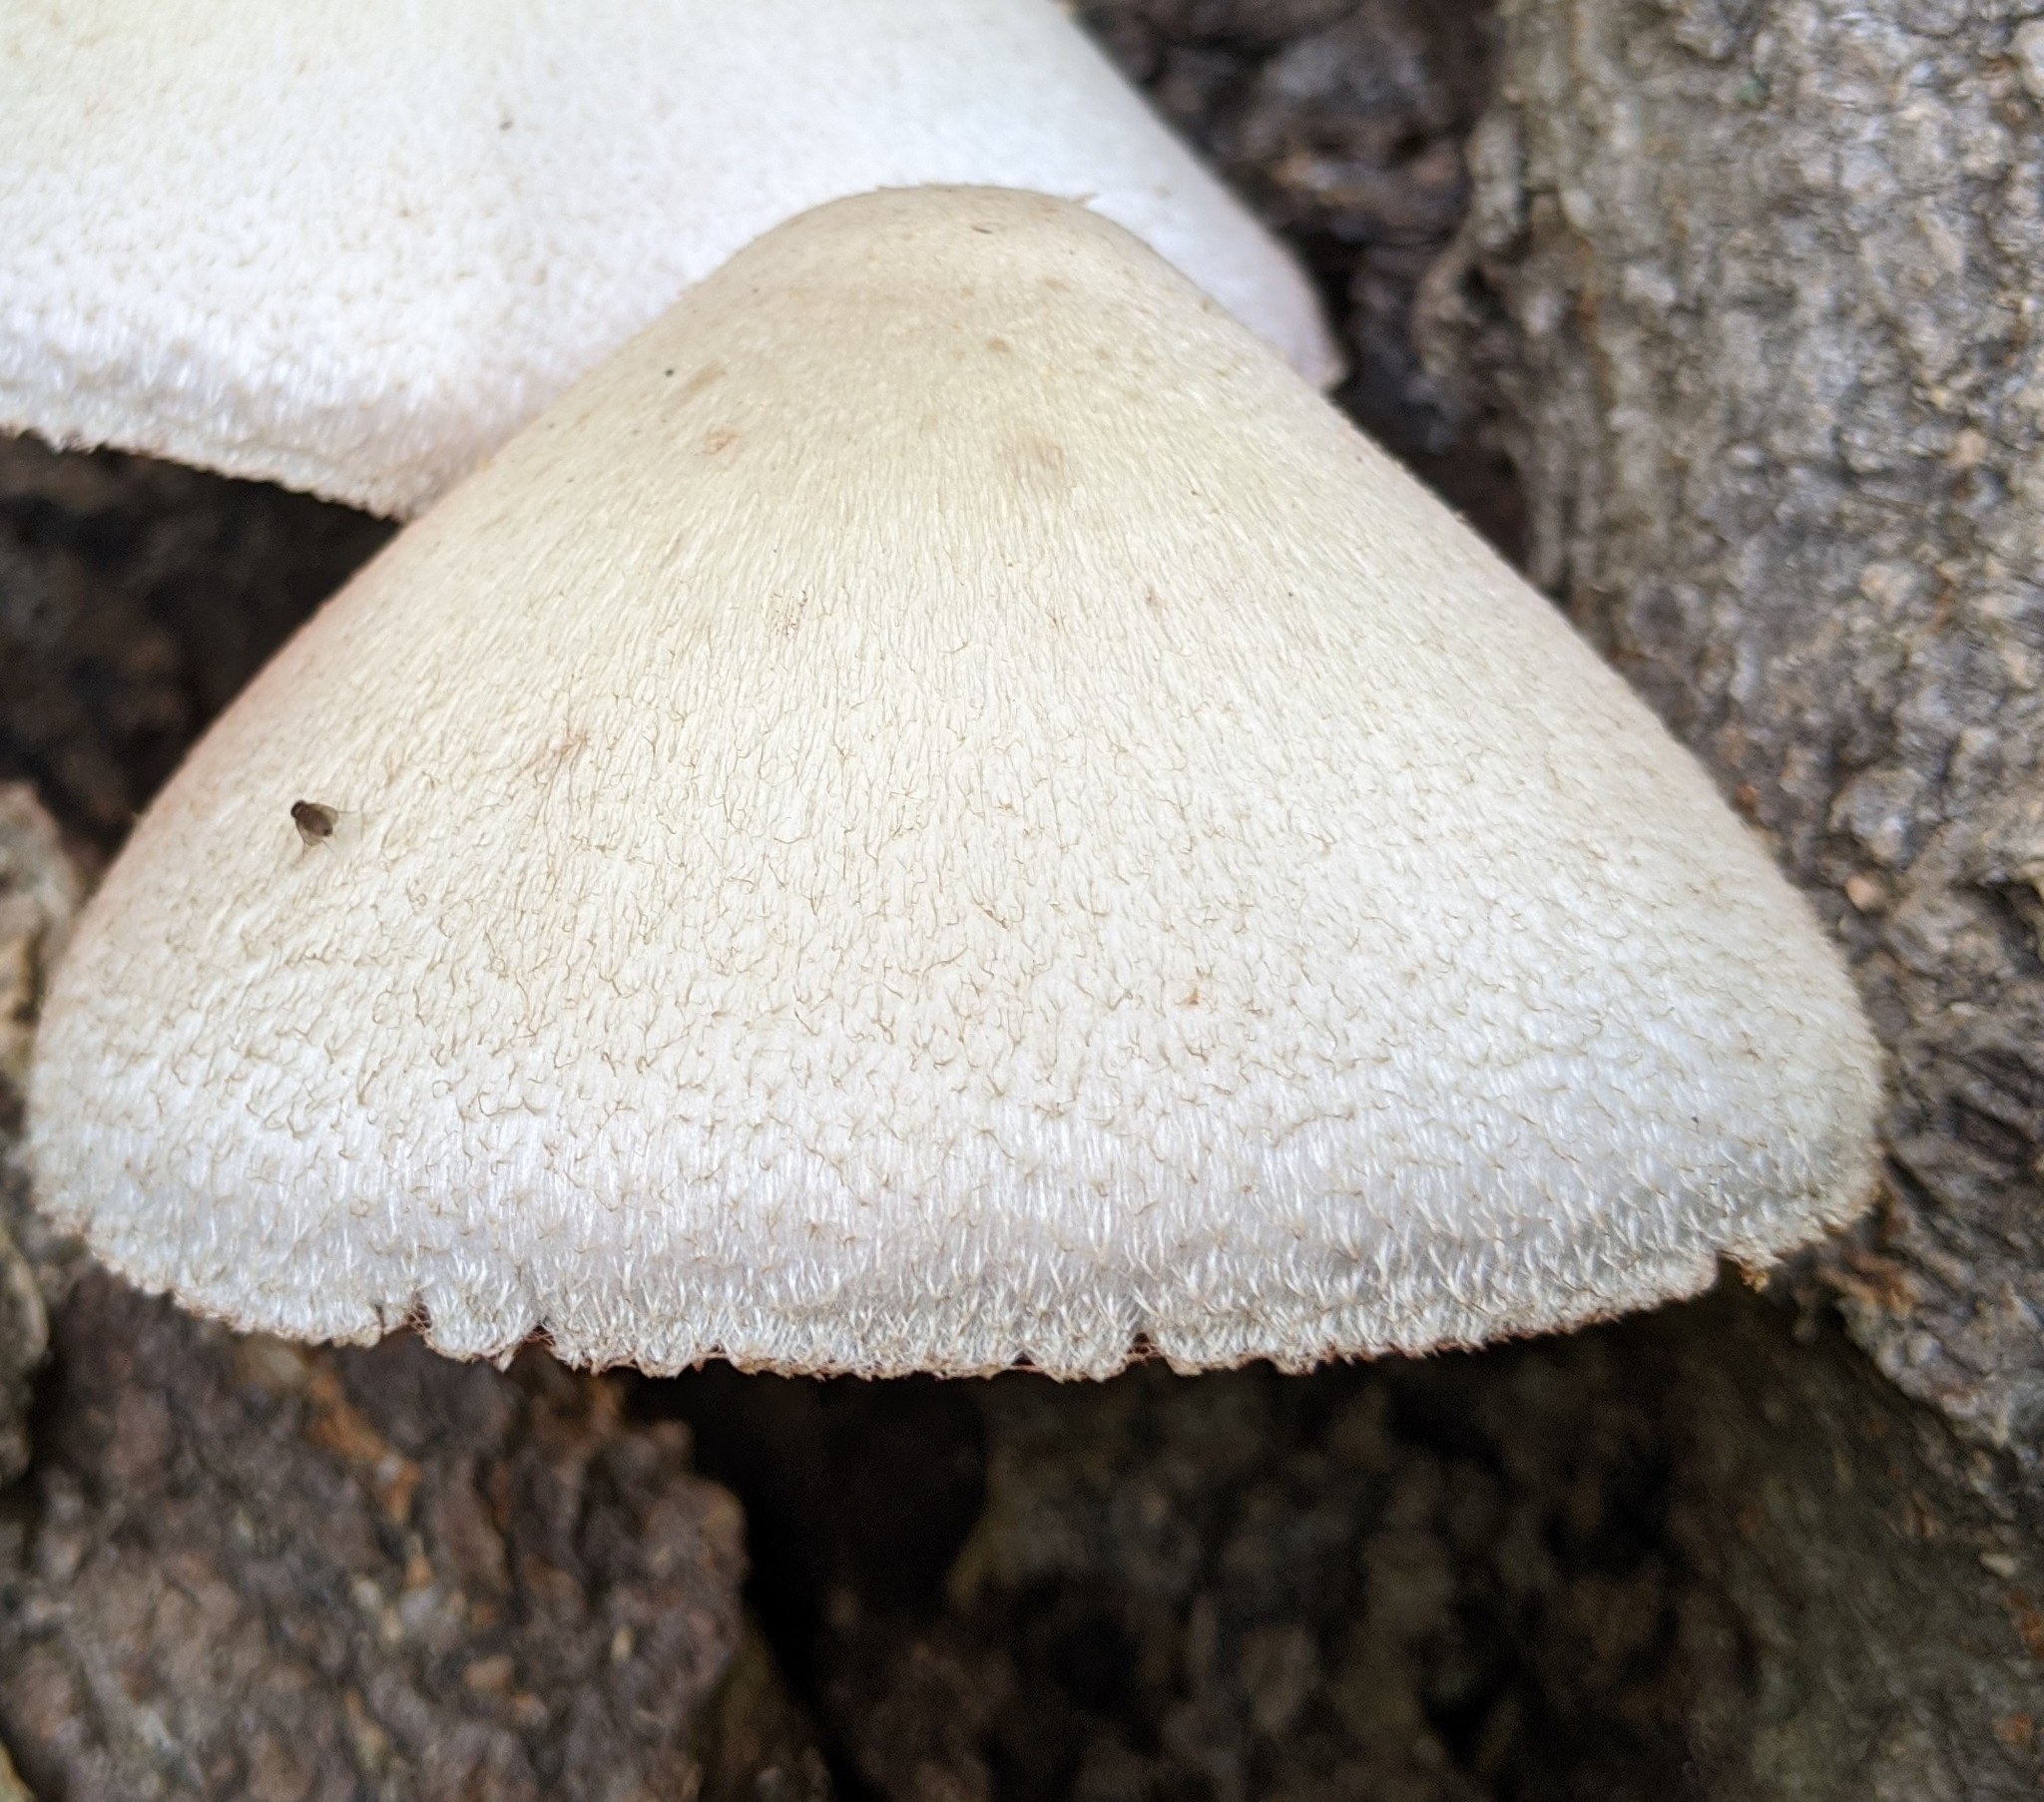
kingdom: Fungi
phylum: Basidiomycota
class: Agaricomycetes
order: Agaricales
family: Pluteaceae
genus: Volvariella
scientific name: Volvariella bombycina
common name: Silky rosegill
